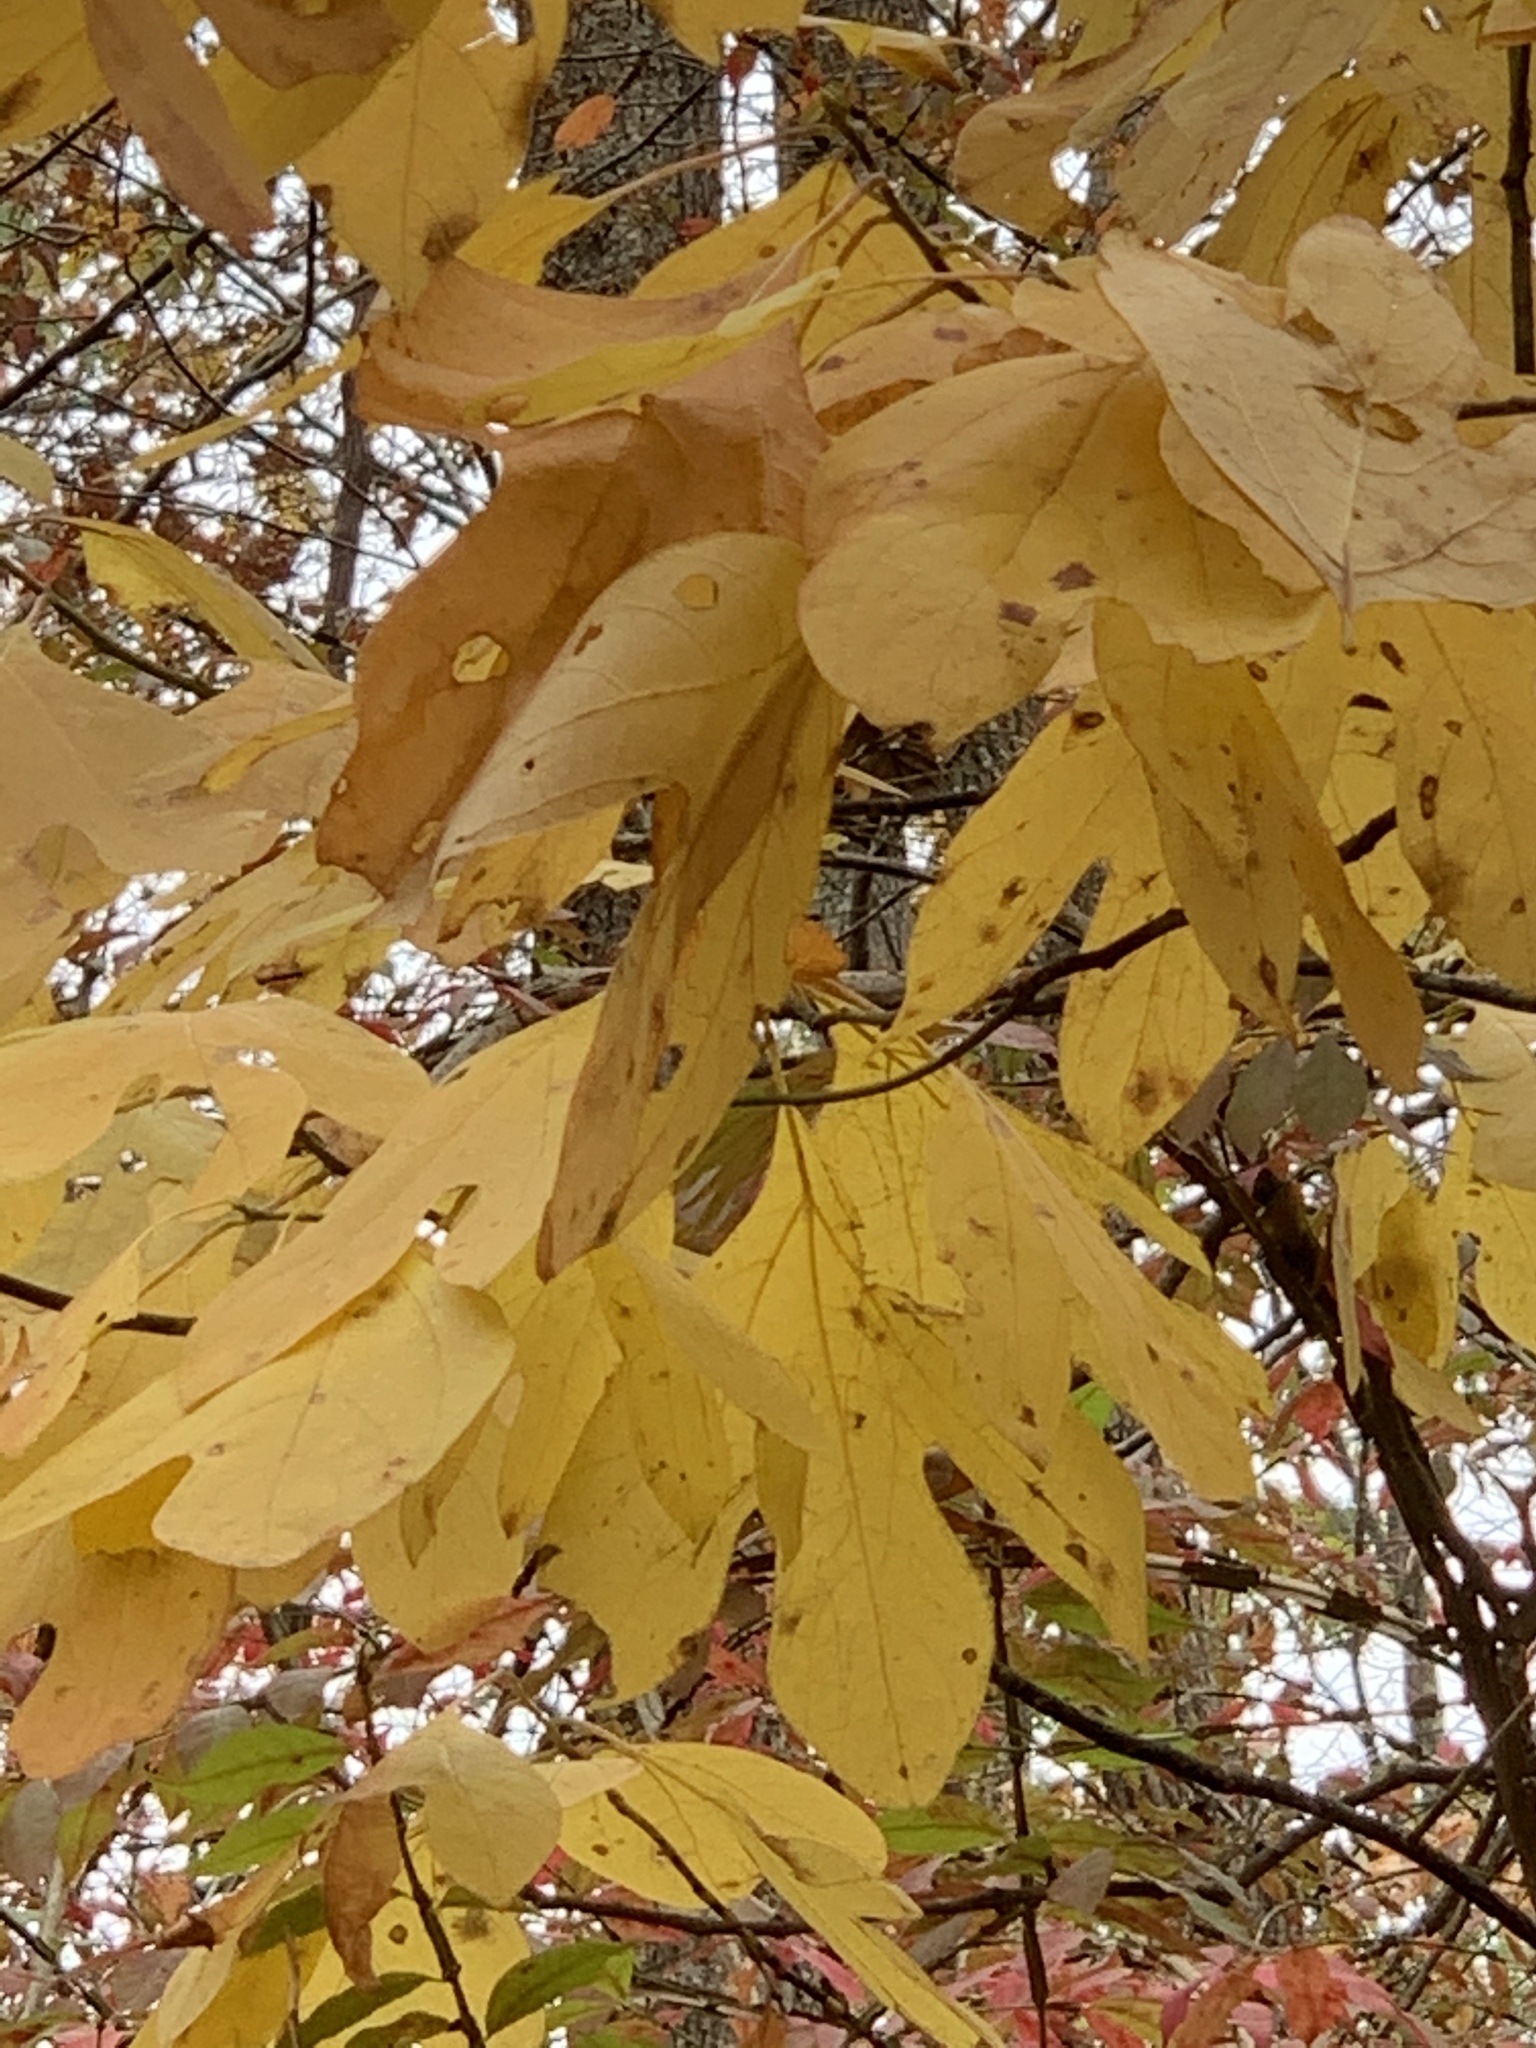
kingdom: Plantae
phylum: Tracheophyta
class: Magnoliopsida
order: Laurales
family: Lauraceae
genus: Sassafras
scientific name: Sassafras albidum
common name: Sassafras
